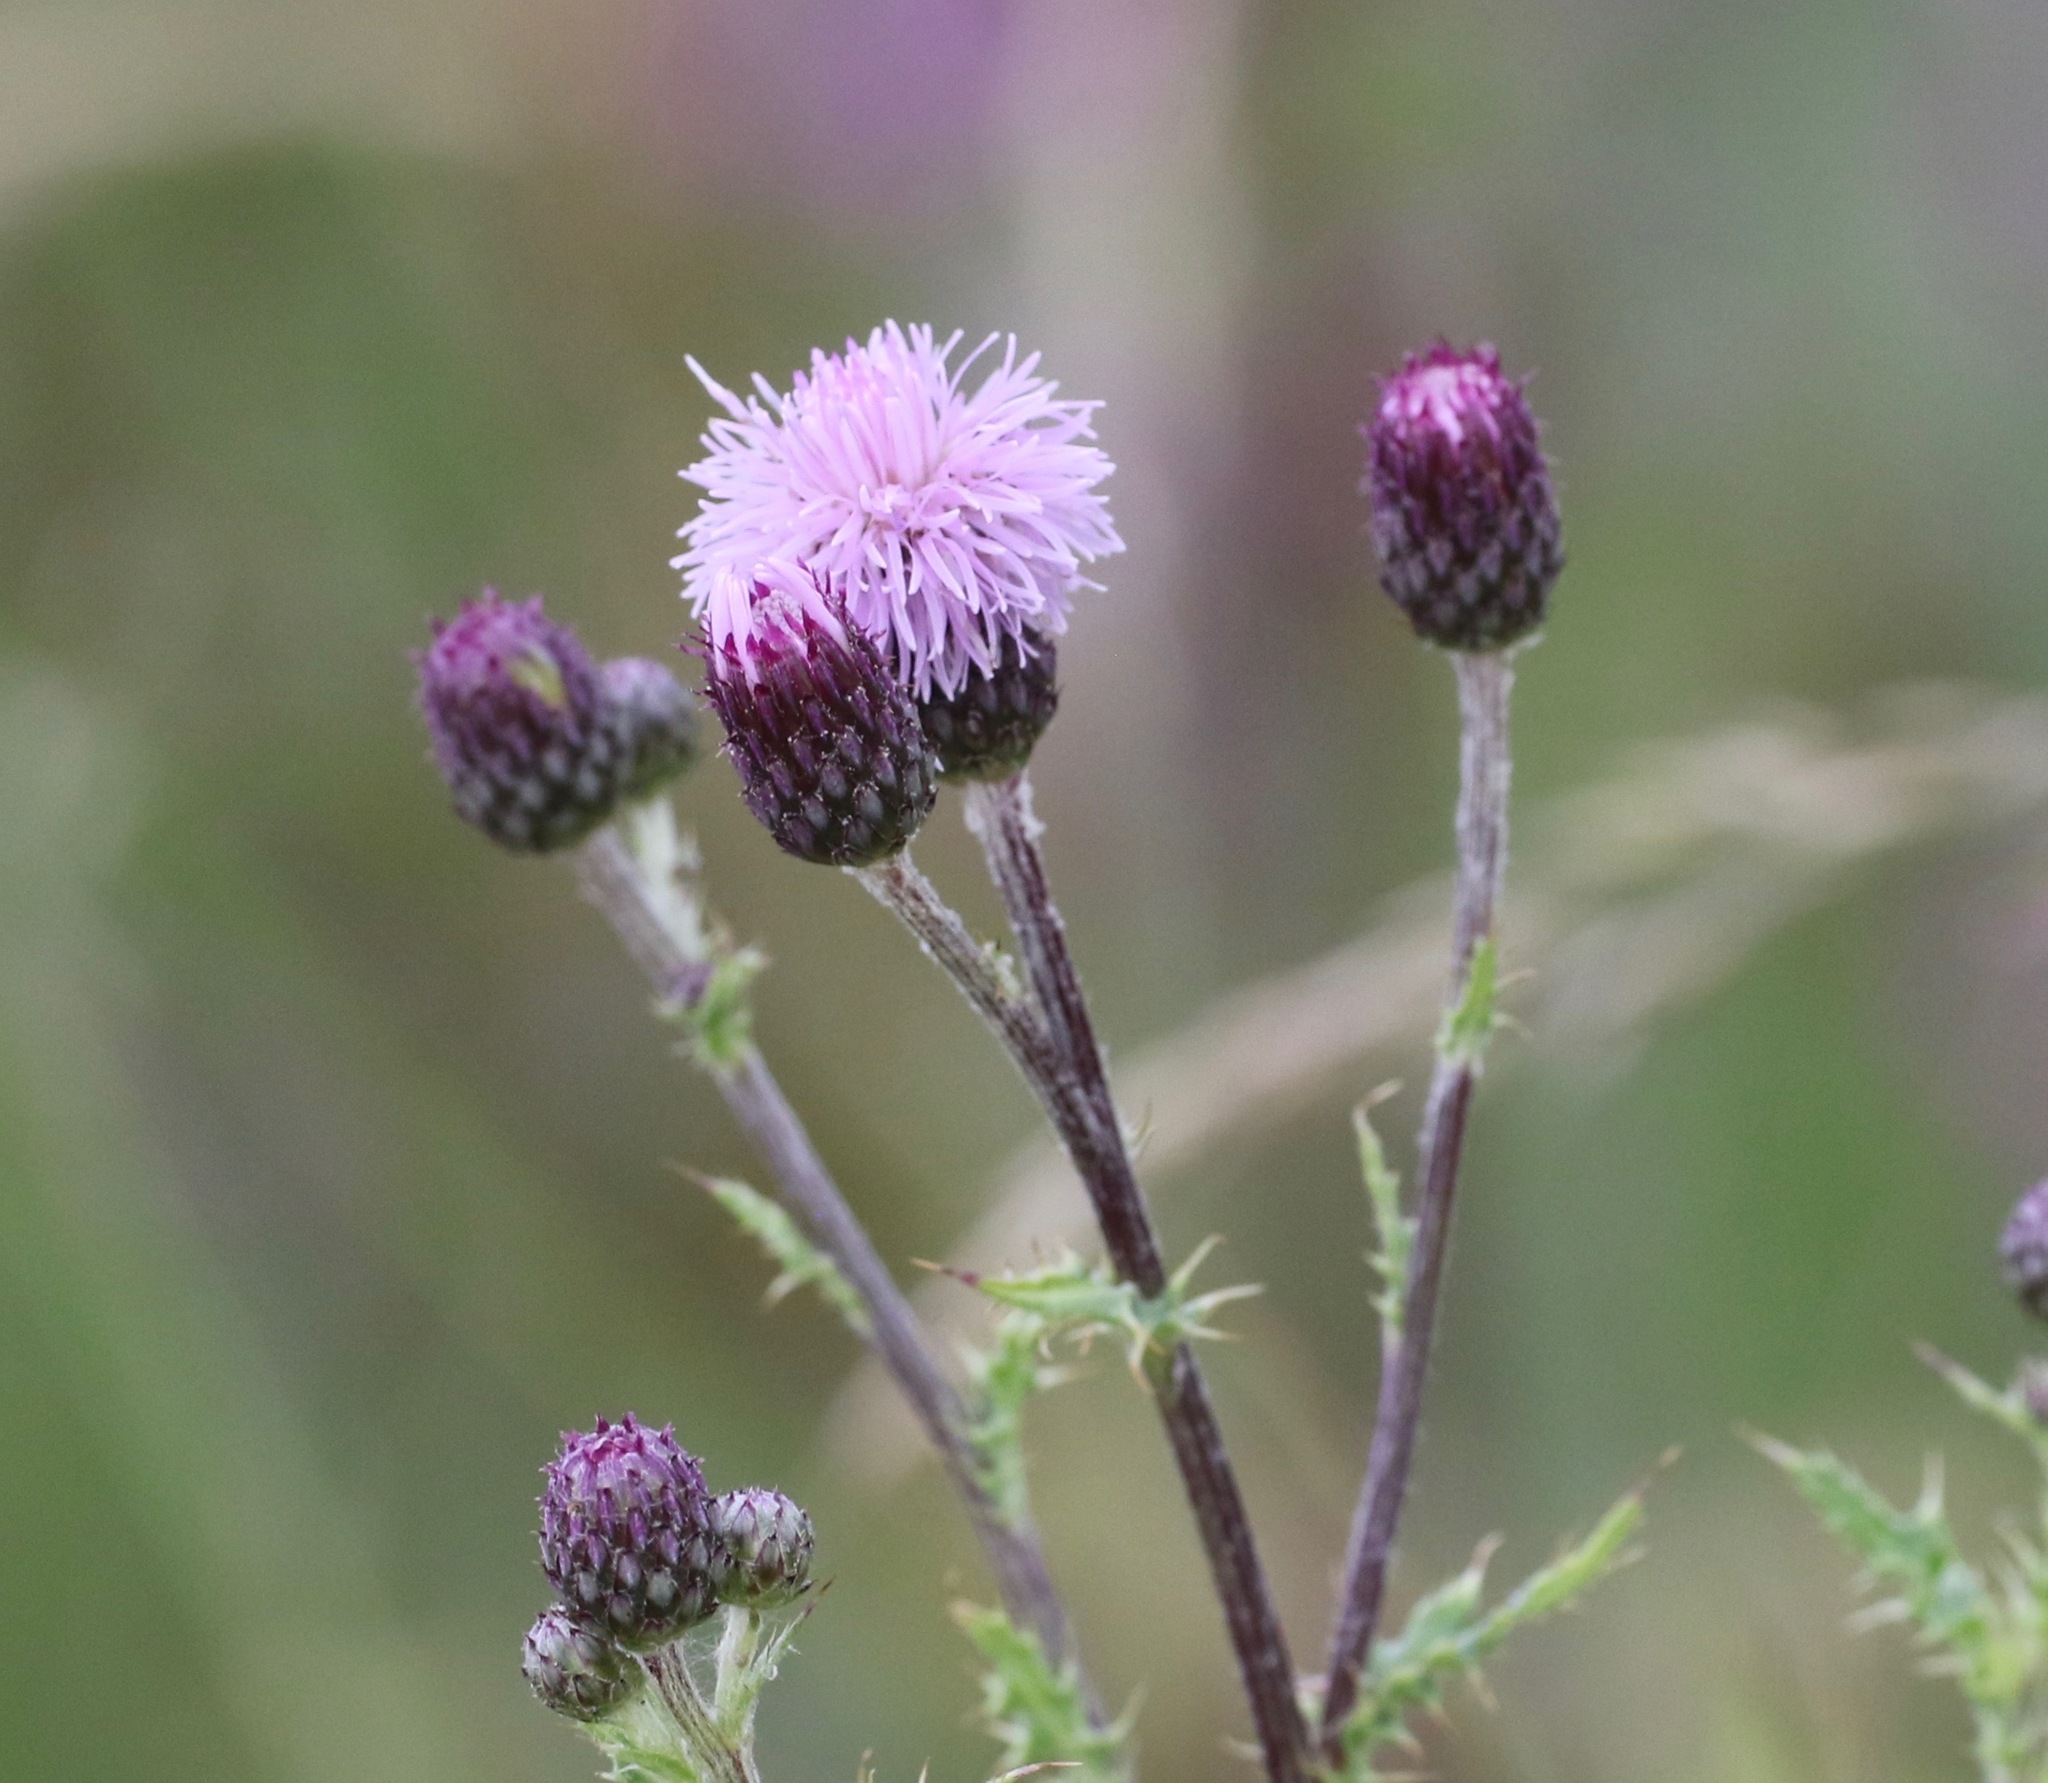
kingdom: Plantae
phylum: Tracheophyta
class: Magnoliopsida
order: Asterales
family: Asteraceae
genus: Cirsium
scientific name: Cirsium arvense
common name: Creeping thistle
